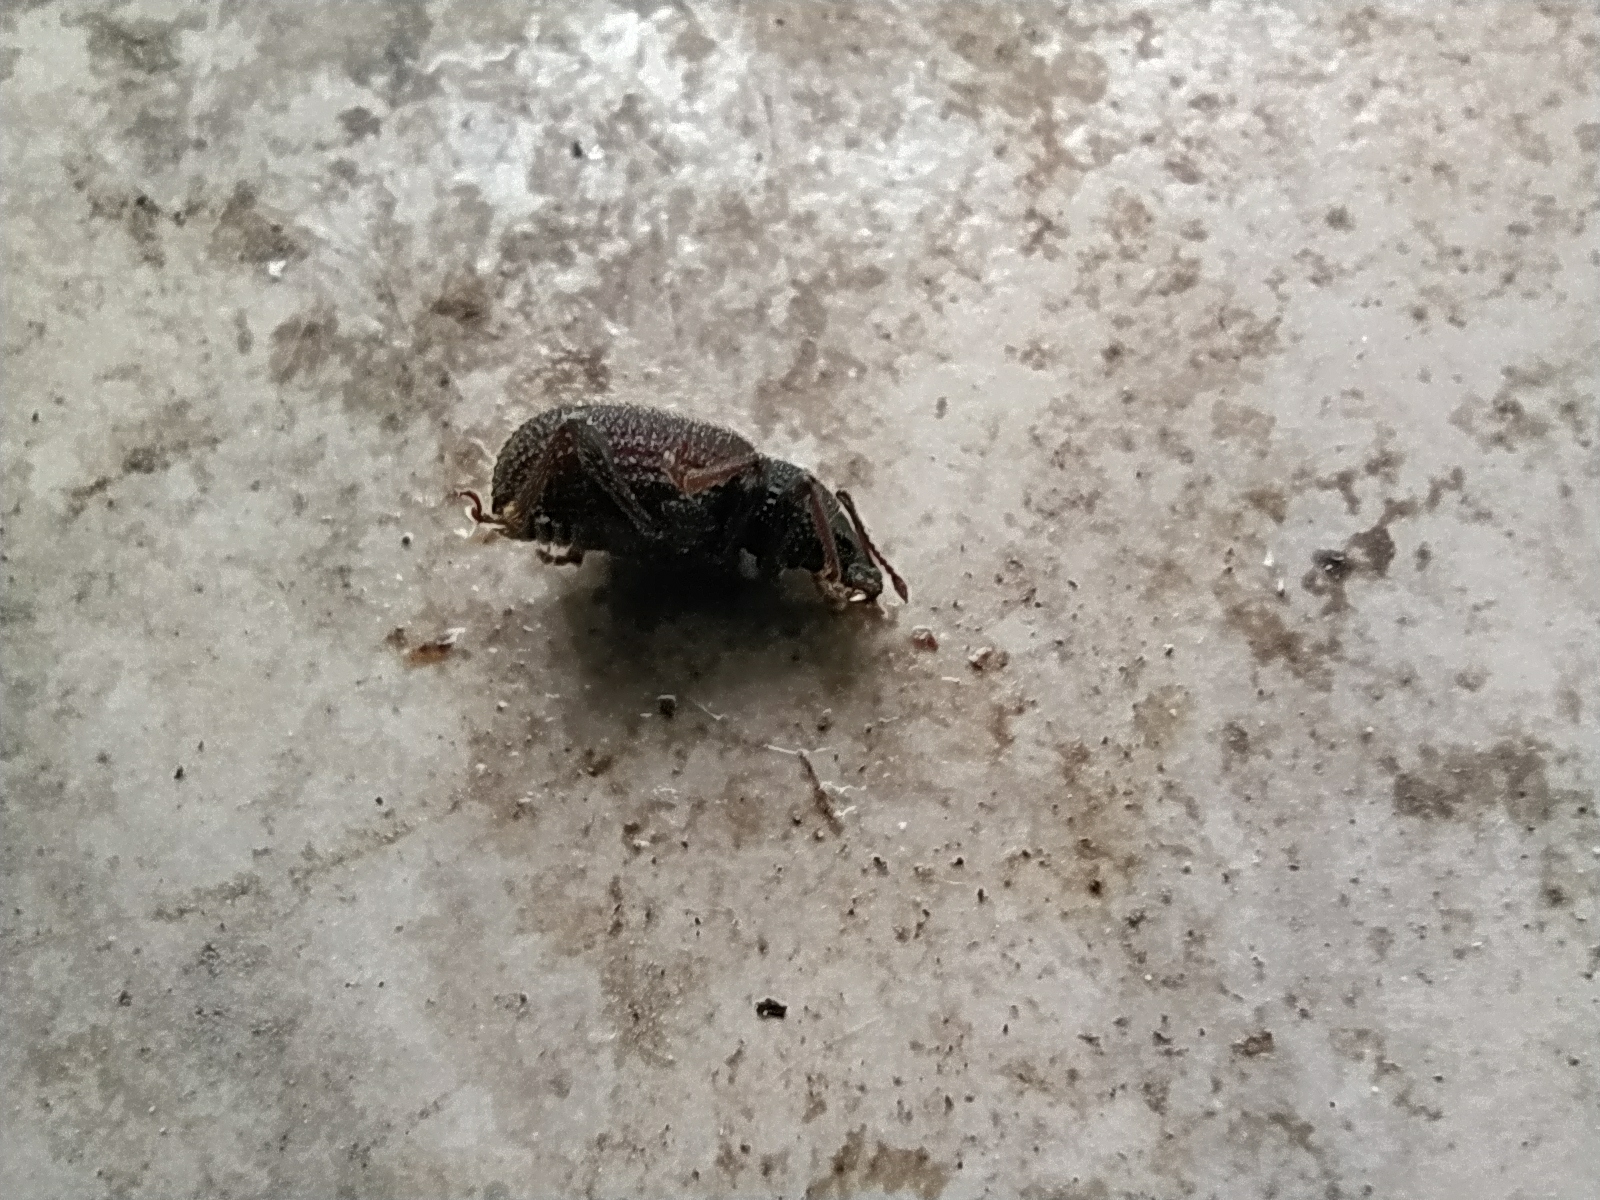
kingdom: Animalia
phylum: Arthropoda
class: Insecta
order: Coleoptera
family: Curculionidae
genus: Otiorhynchus
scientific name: Otiorhynchus rugosostriatus
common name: Weevil
